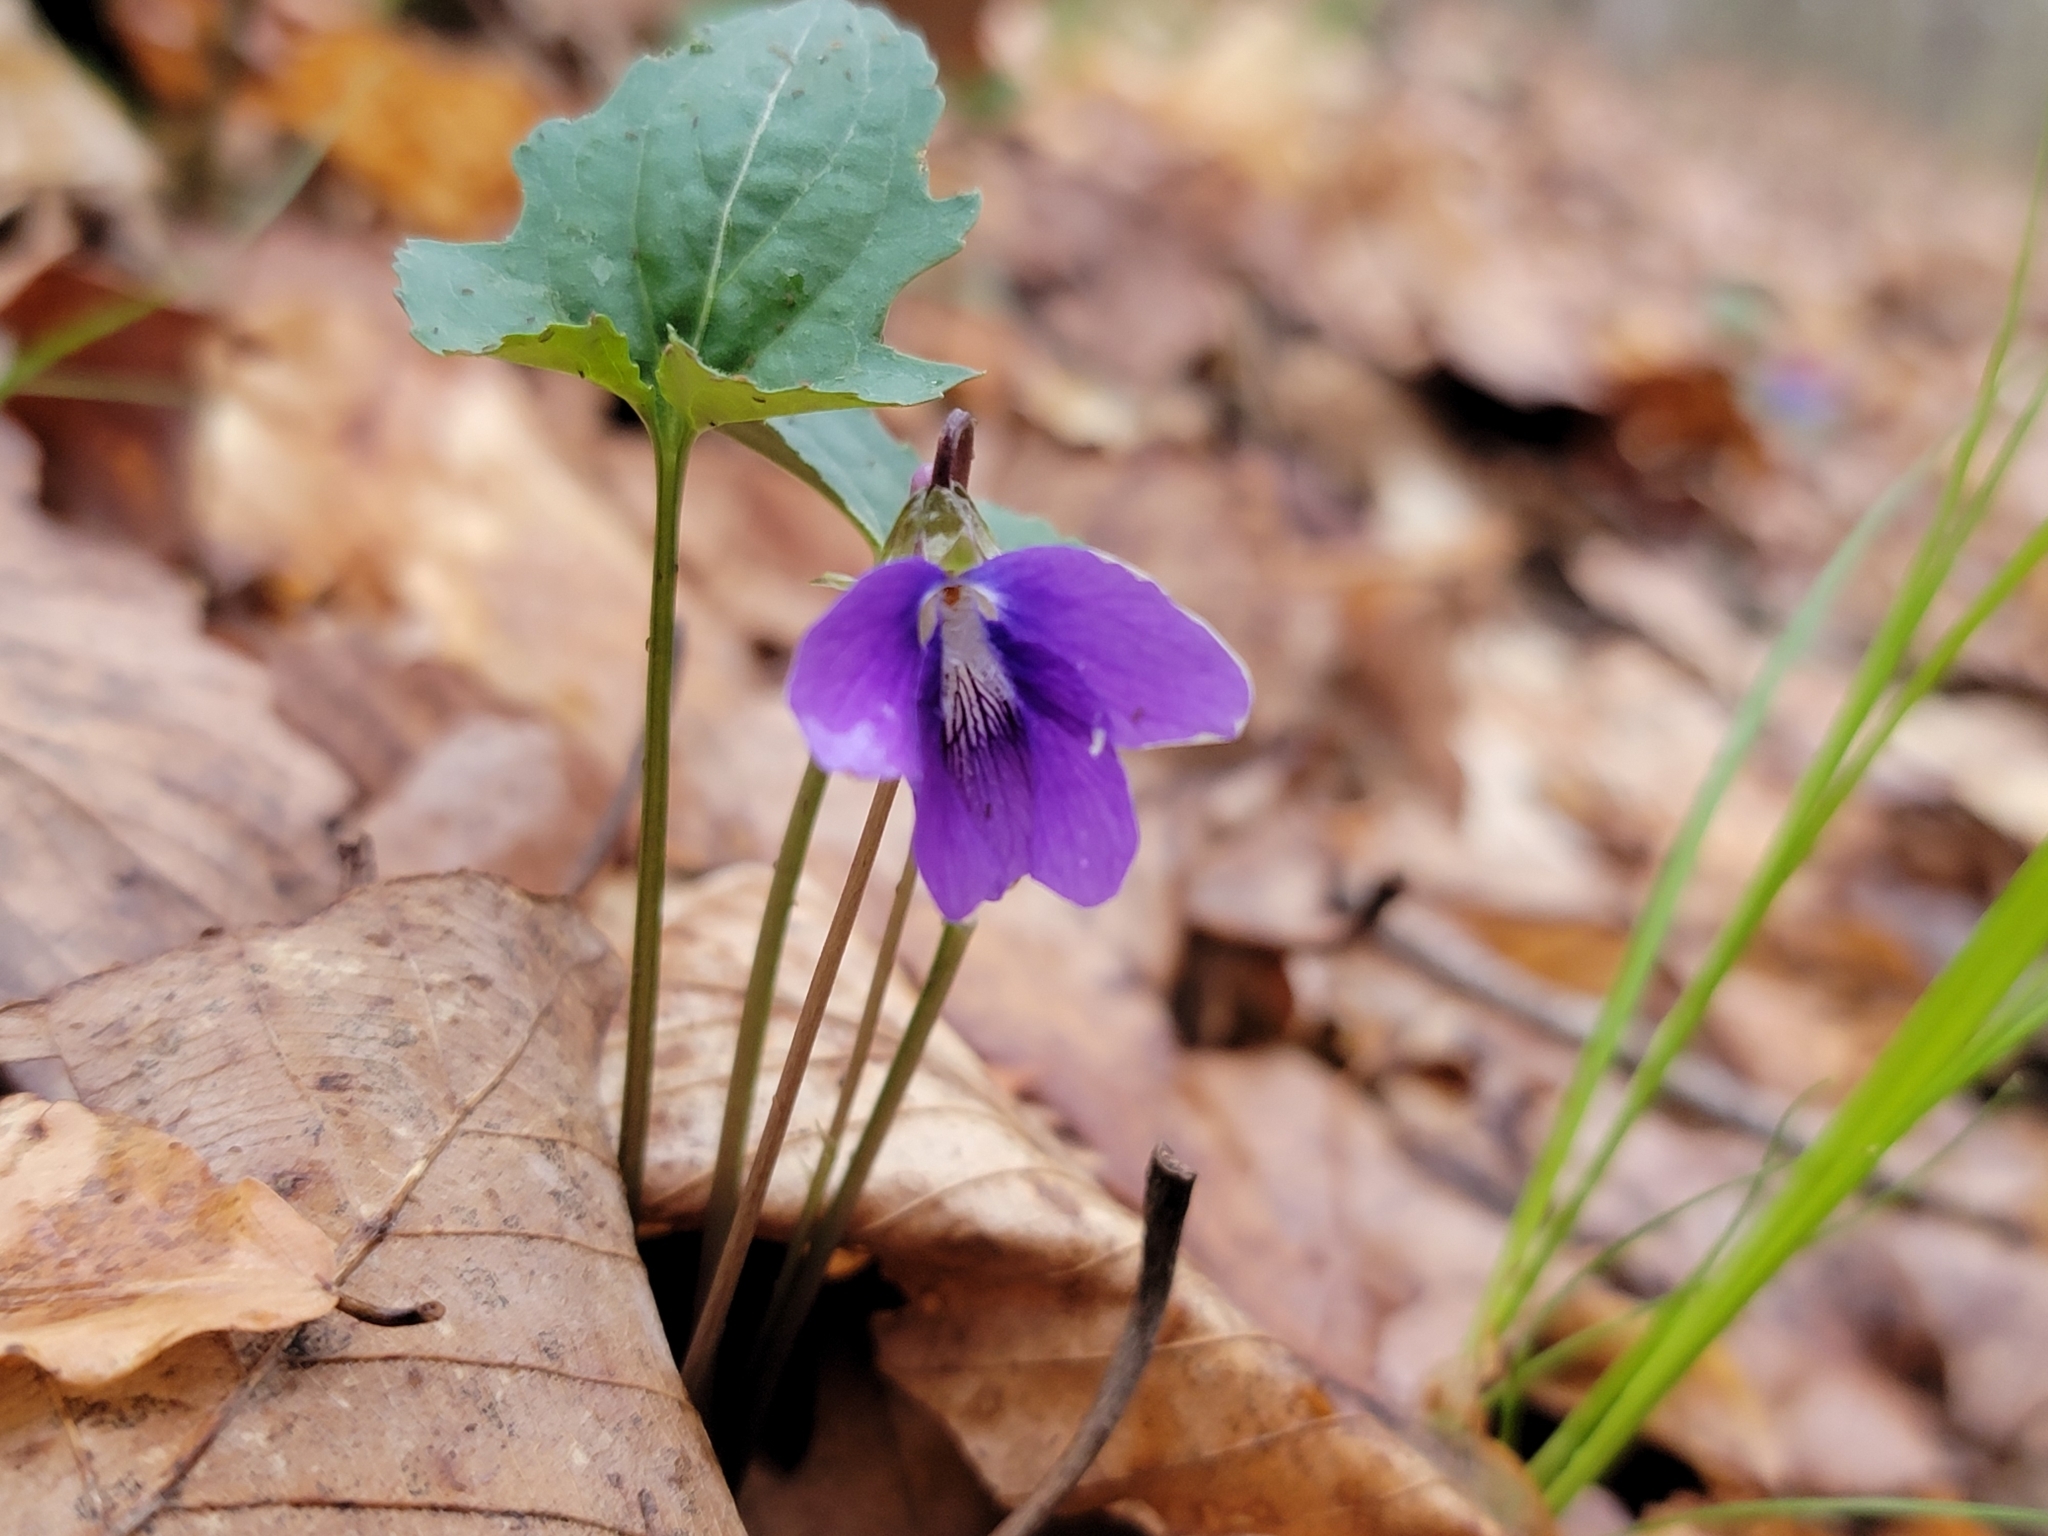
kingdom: Plantae
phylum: Tracheophyta
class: Magnoliopsida
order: Malpighiales
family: Violaceae
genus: Viola
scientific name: Viola palmata
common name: Early blue violet
